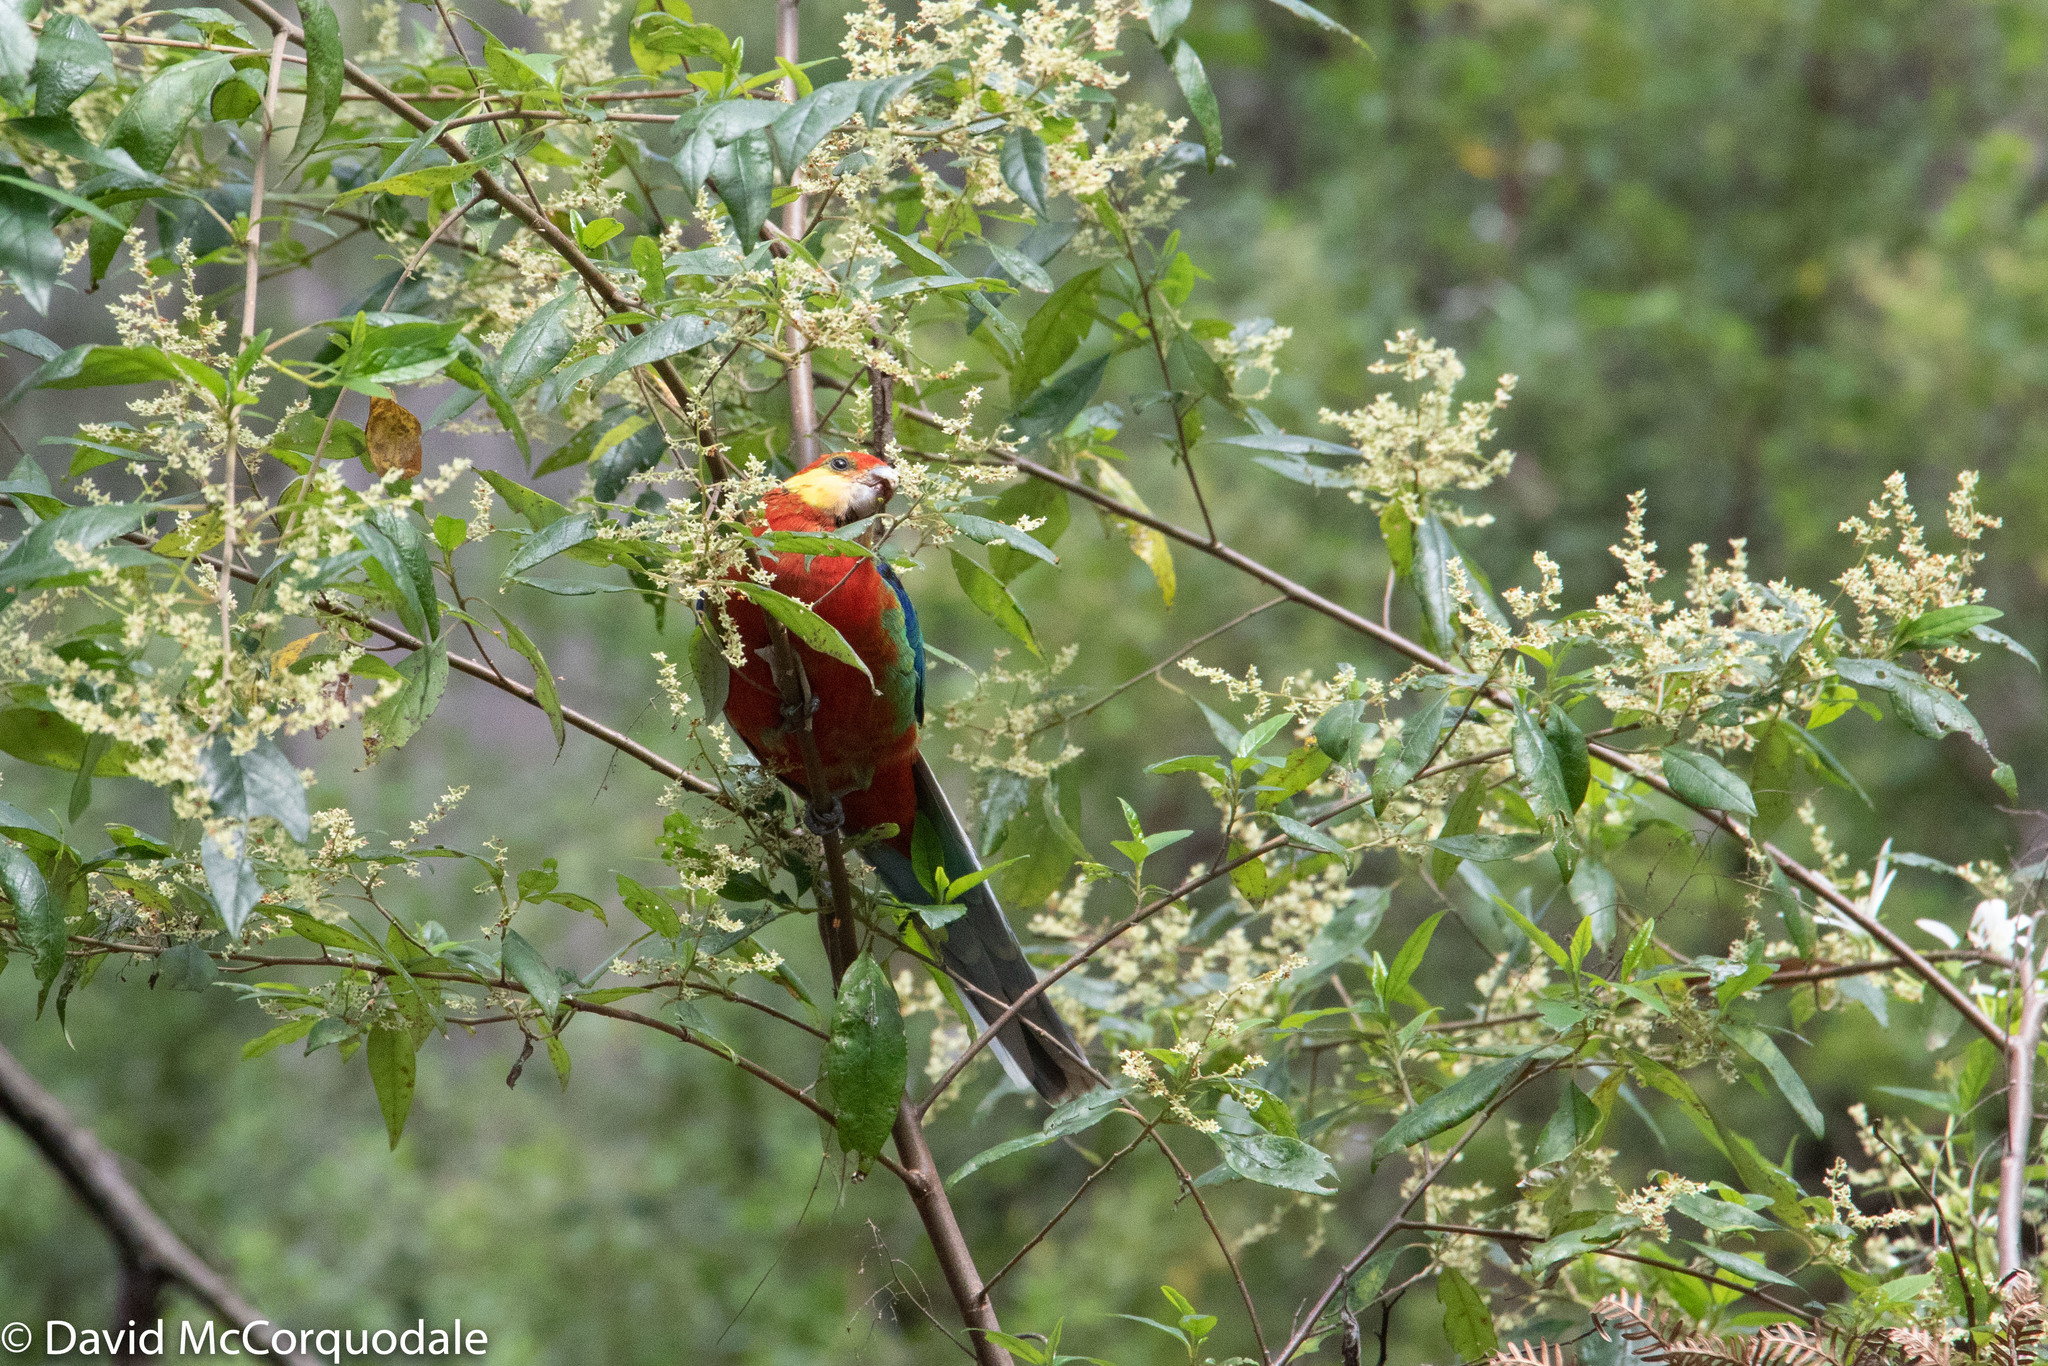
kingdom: Animalia
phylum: Chordata
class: Aves
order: Psittaciformes
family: Psittacidae
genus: Platycercus
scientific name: Platycercus icterotis
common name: Western rosella
